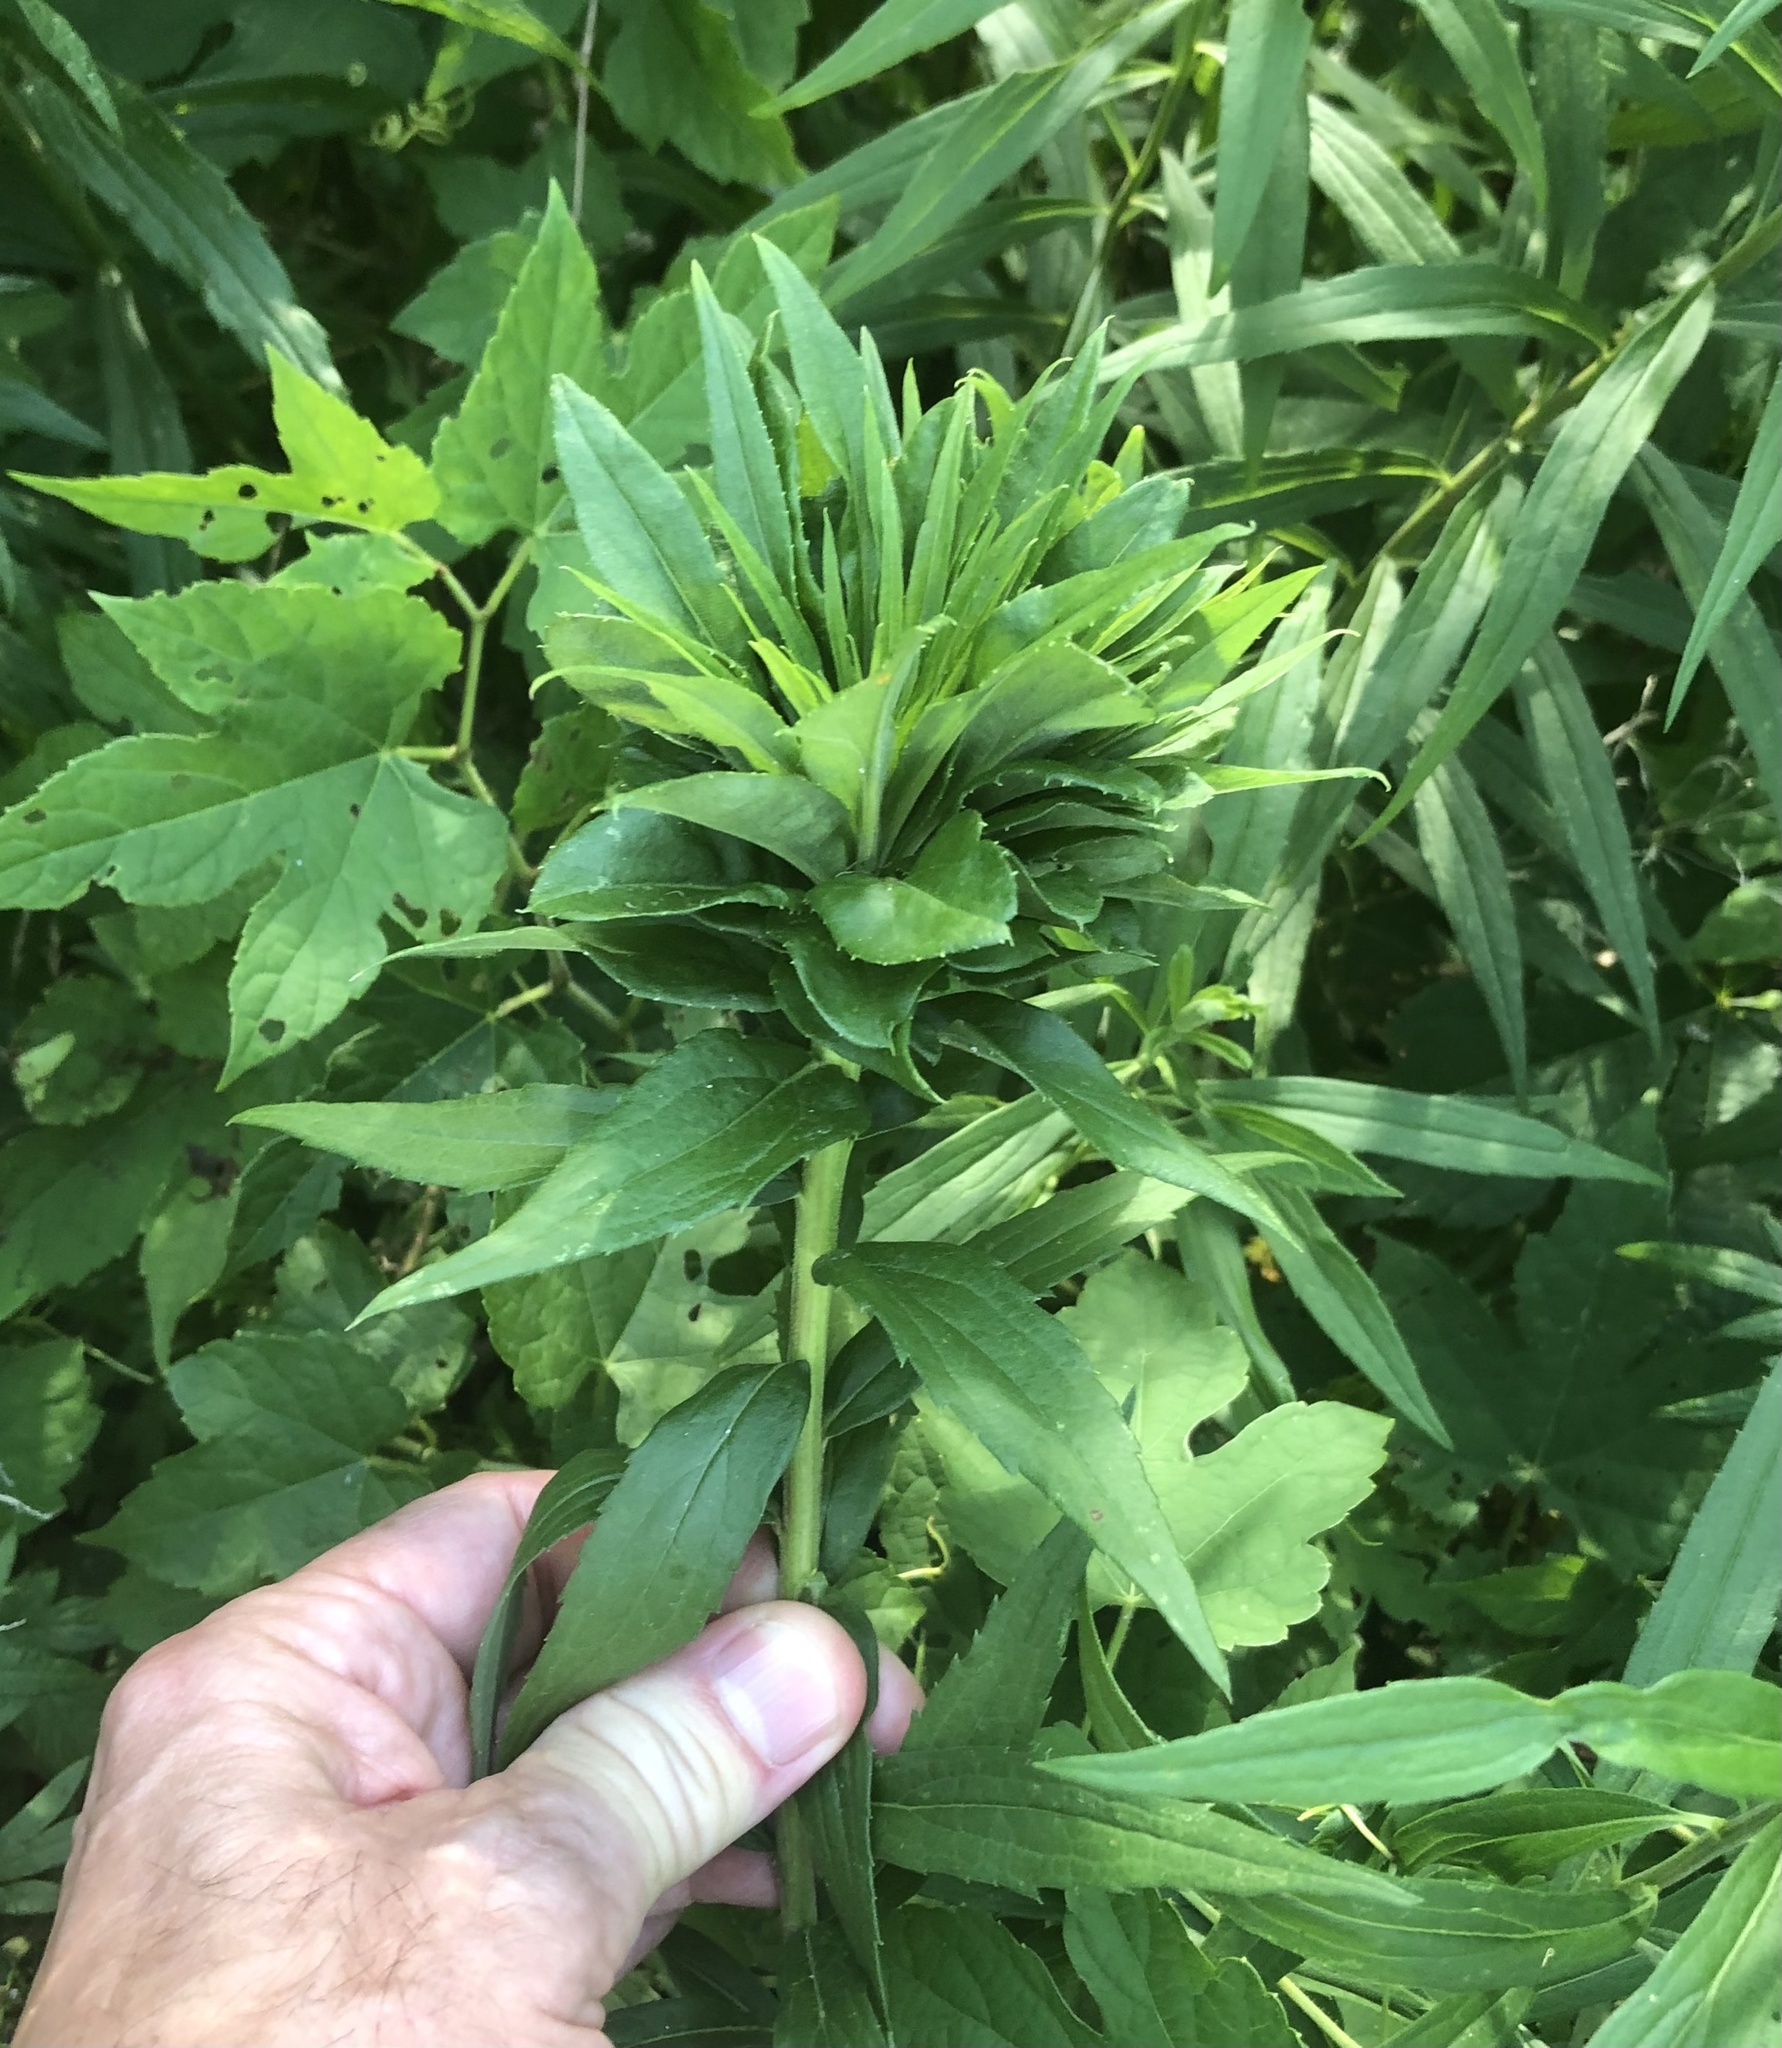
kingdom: Animalia
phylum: Arthropoda
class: Insecta
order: Diptera
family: Cecidomyiidae
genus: Rhopalomyia
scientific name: Rhopalomyia solidaginis
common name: Goldenrod bunch gall midge
